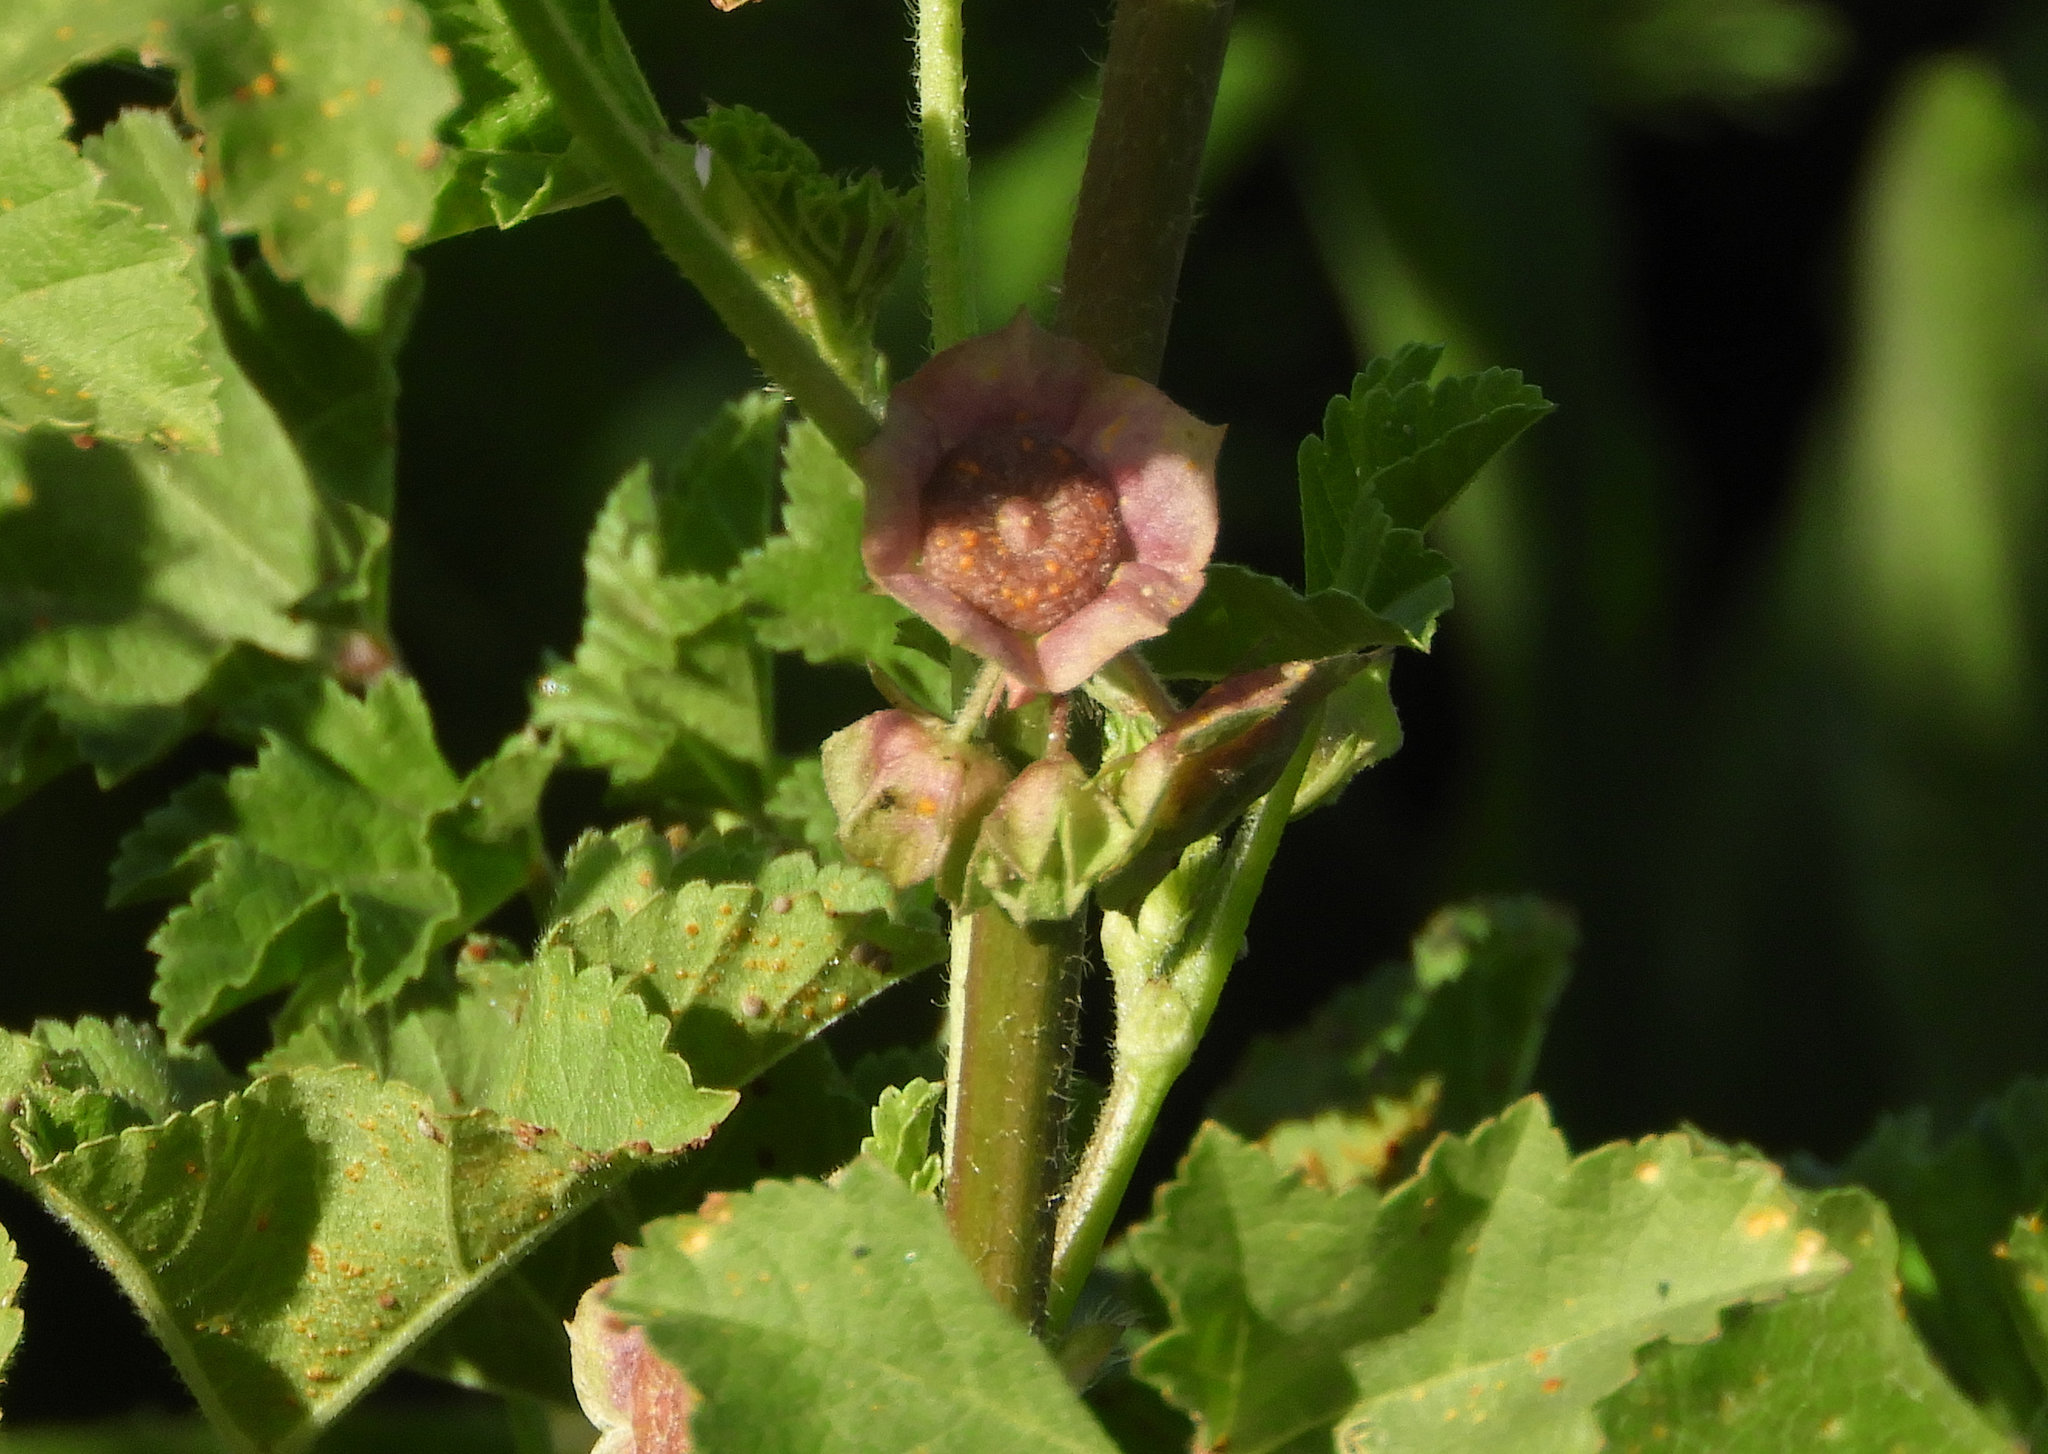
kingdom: Plantae
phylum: Tracheophyta
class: Magnoliopsida
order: Malvales
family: Malvaceae
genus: Malva
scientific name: Malva parviflora
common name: Least mallow
